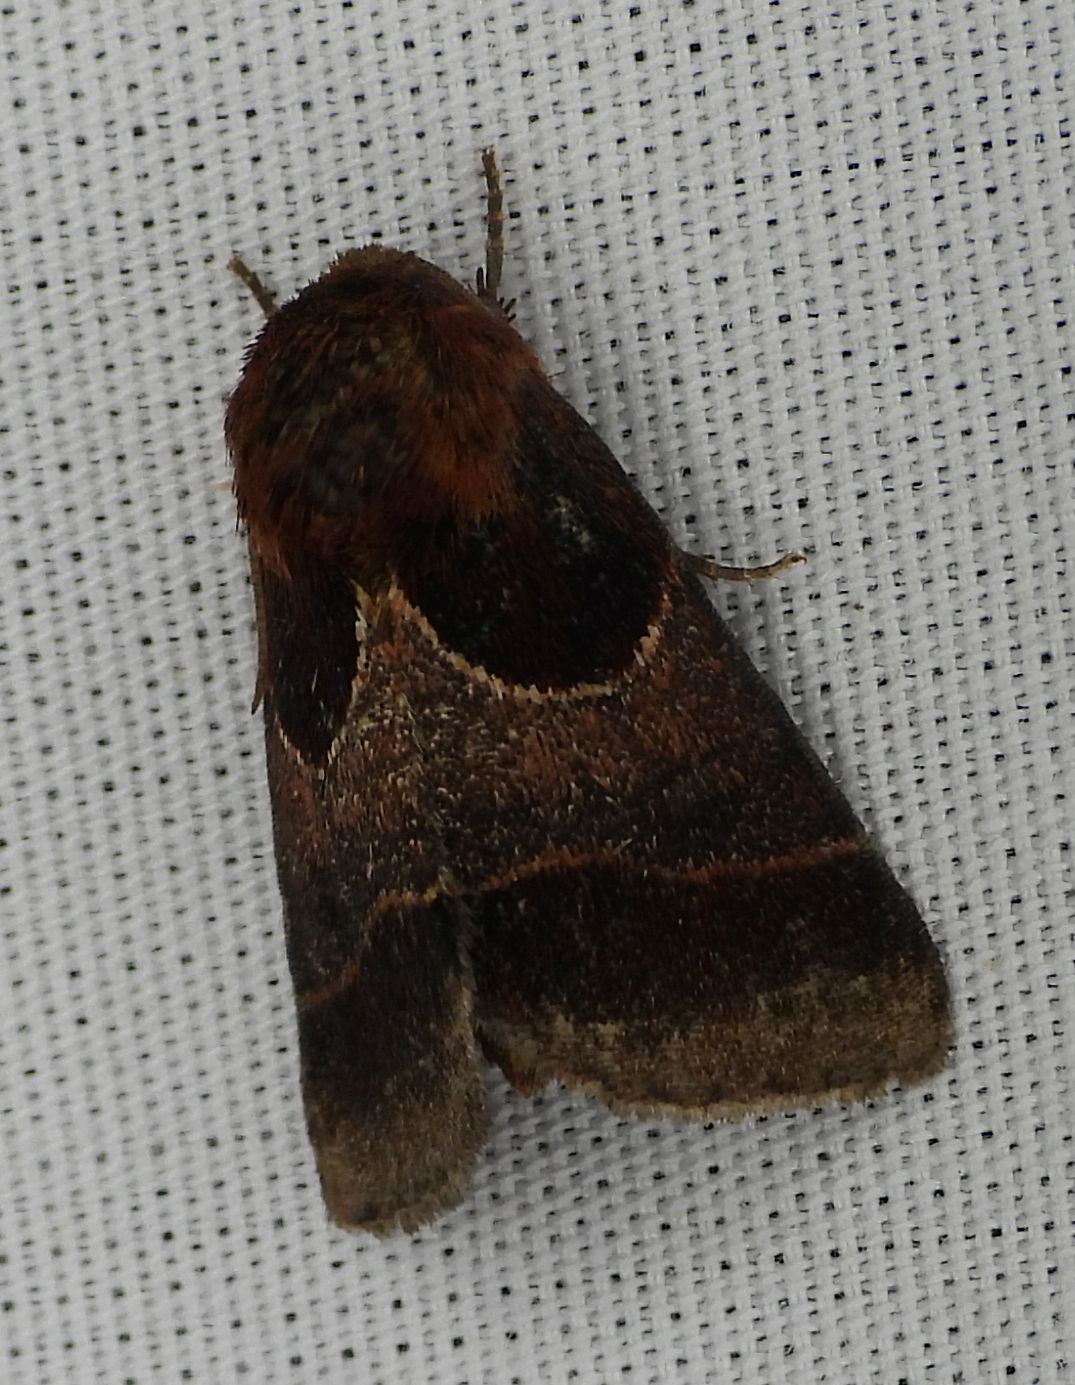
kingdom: Animalia
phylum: Arthropoda
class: Insecta
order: Lepidoptera
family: Noctuidae
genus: Schinia
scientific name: Schinia arcigera
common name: Arcigera flower moth
